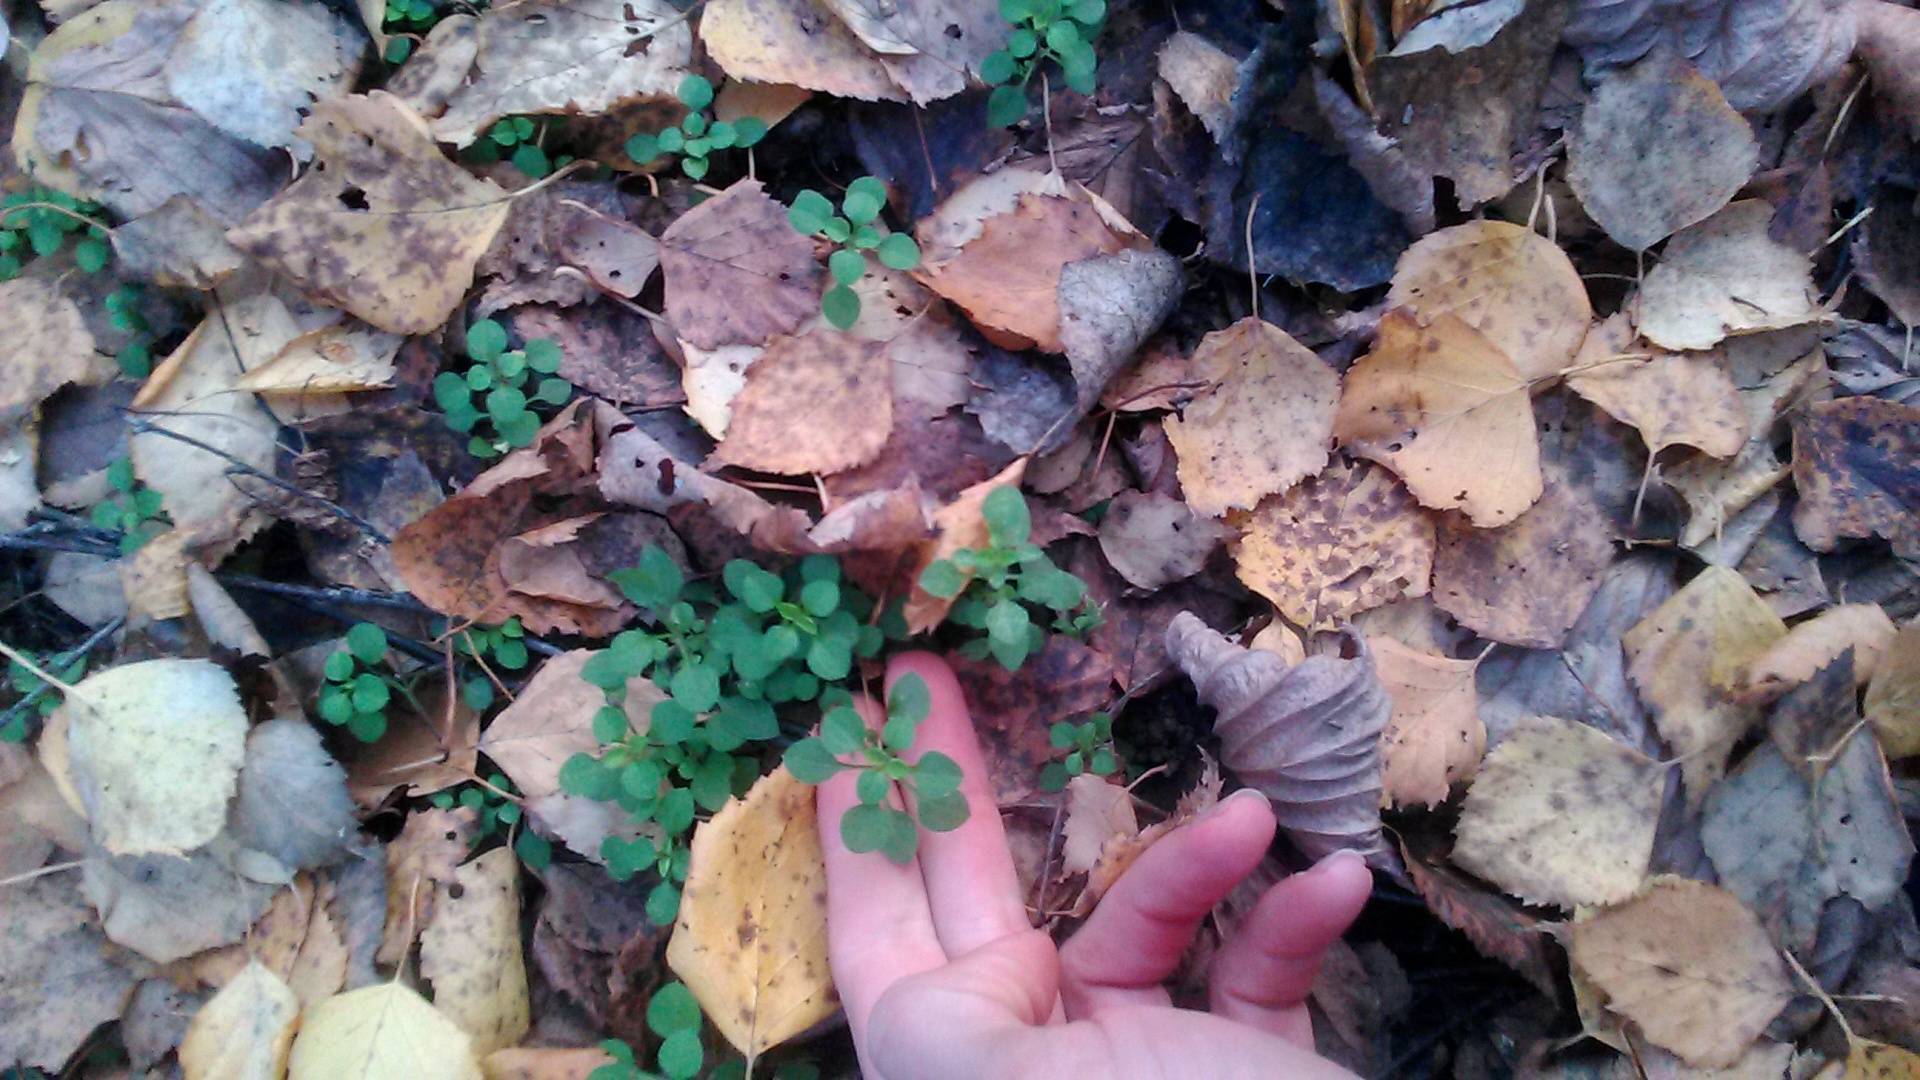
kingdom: Plantae
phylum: Tracheophyta
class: Magnoliopsida
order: Caryophyllales
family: Caryophyllaceae
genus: Moehringia
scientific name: Moehringia trinervia
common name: Three-nerved sandwort
